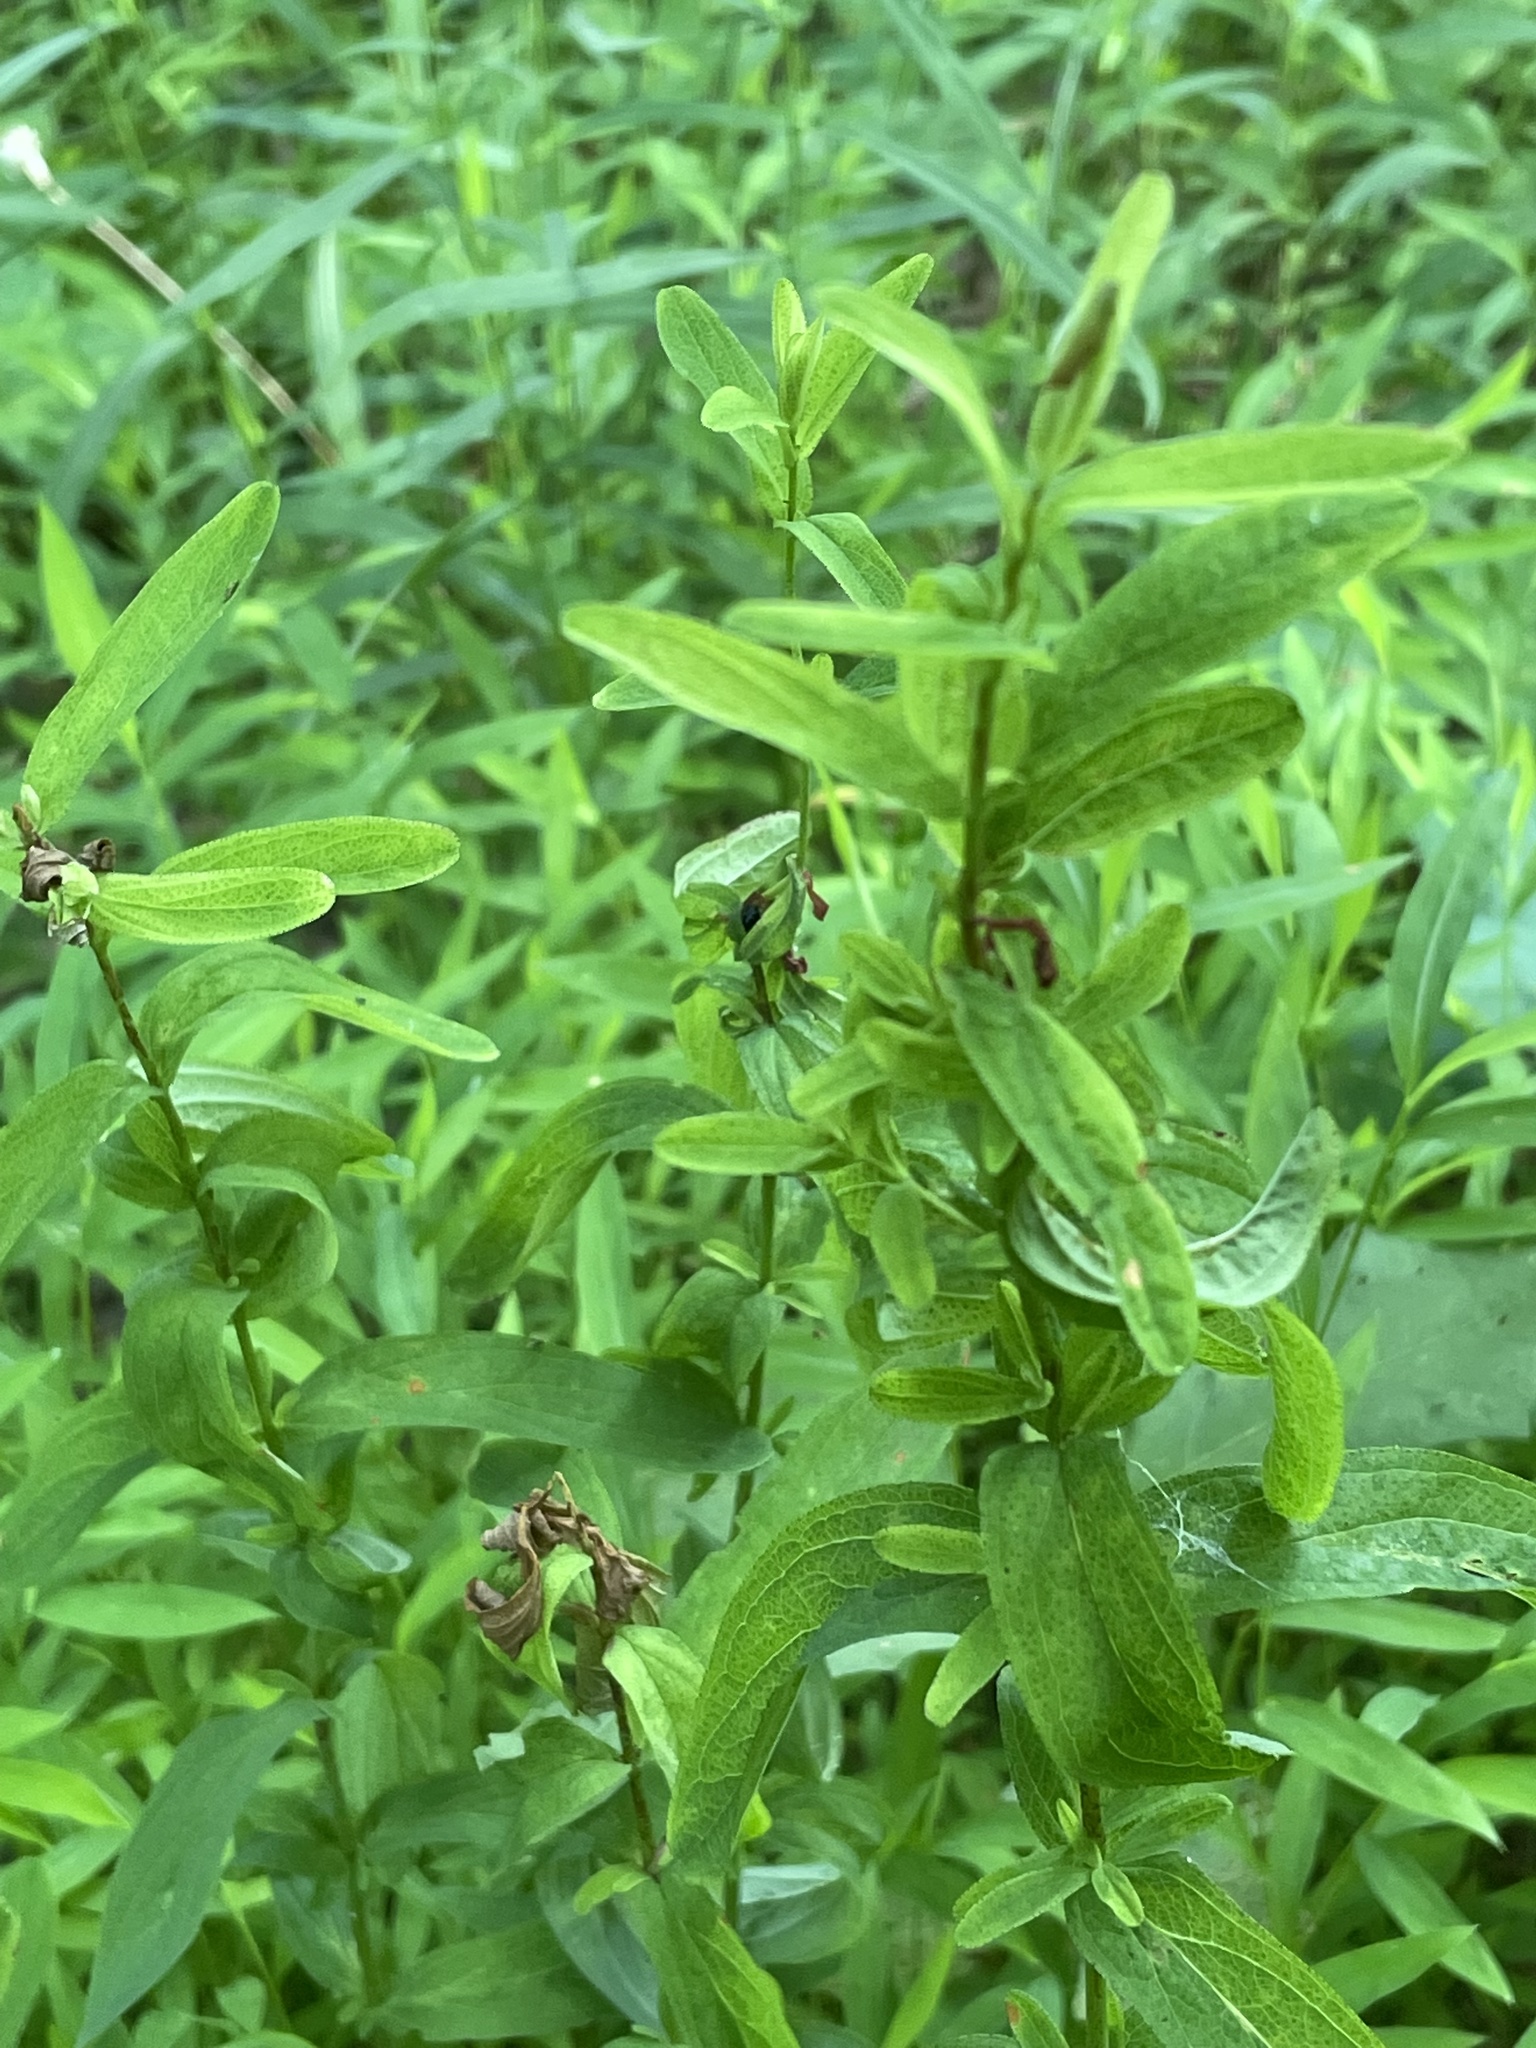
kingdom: Plantae
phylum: Tracheophyta
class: Magnoliopsida
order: Malpighiales
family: Hypericaceae
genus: Hypericum
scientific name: Hypericum punctatum
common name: Spotted st. john's-wort
